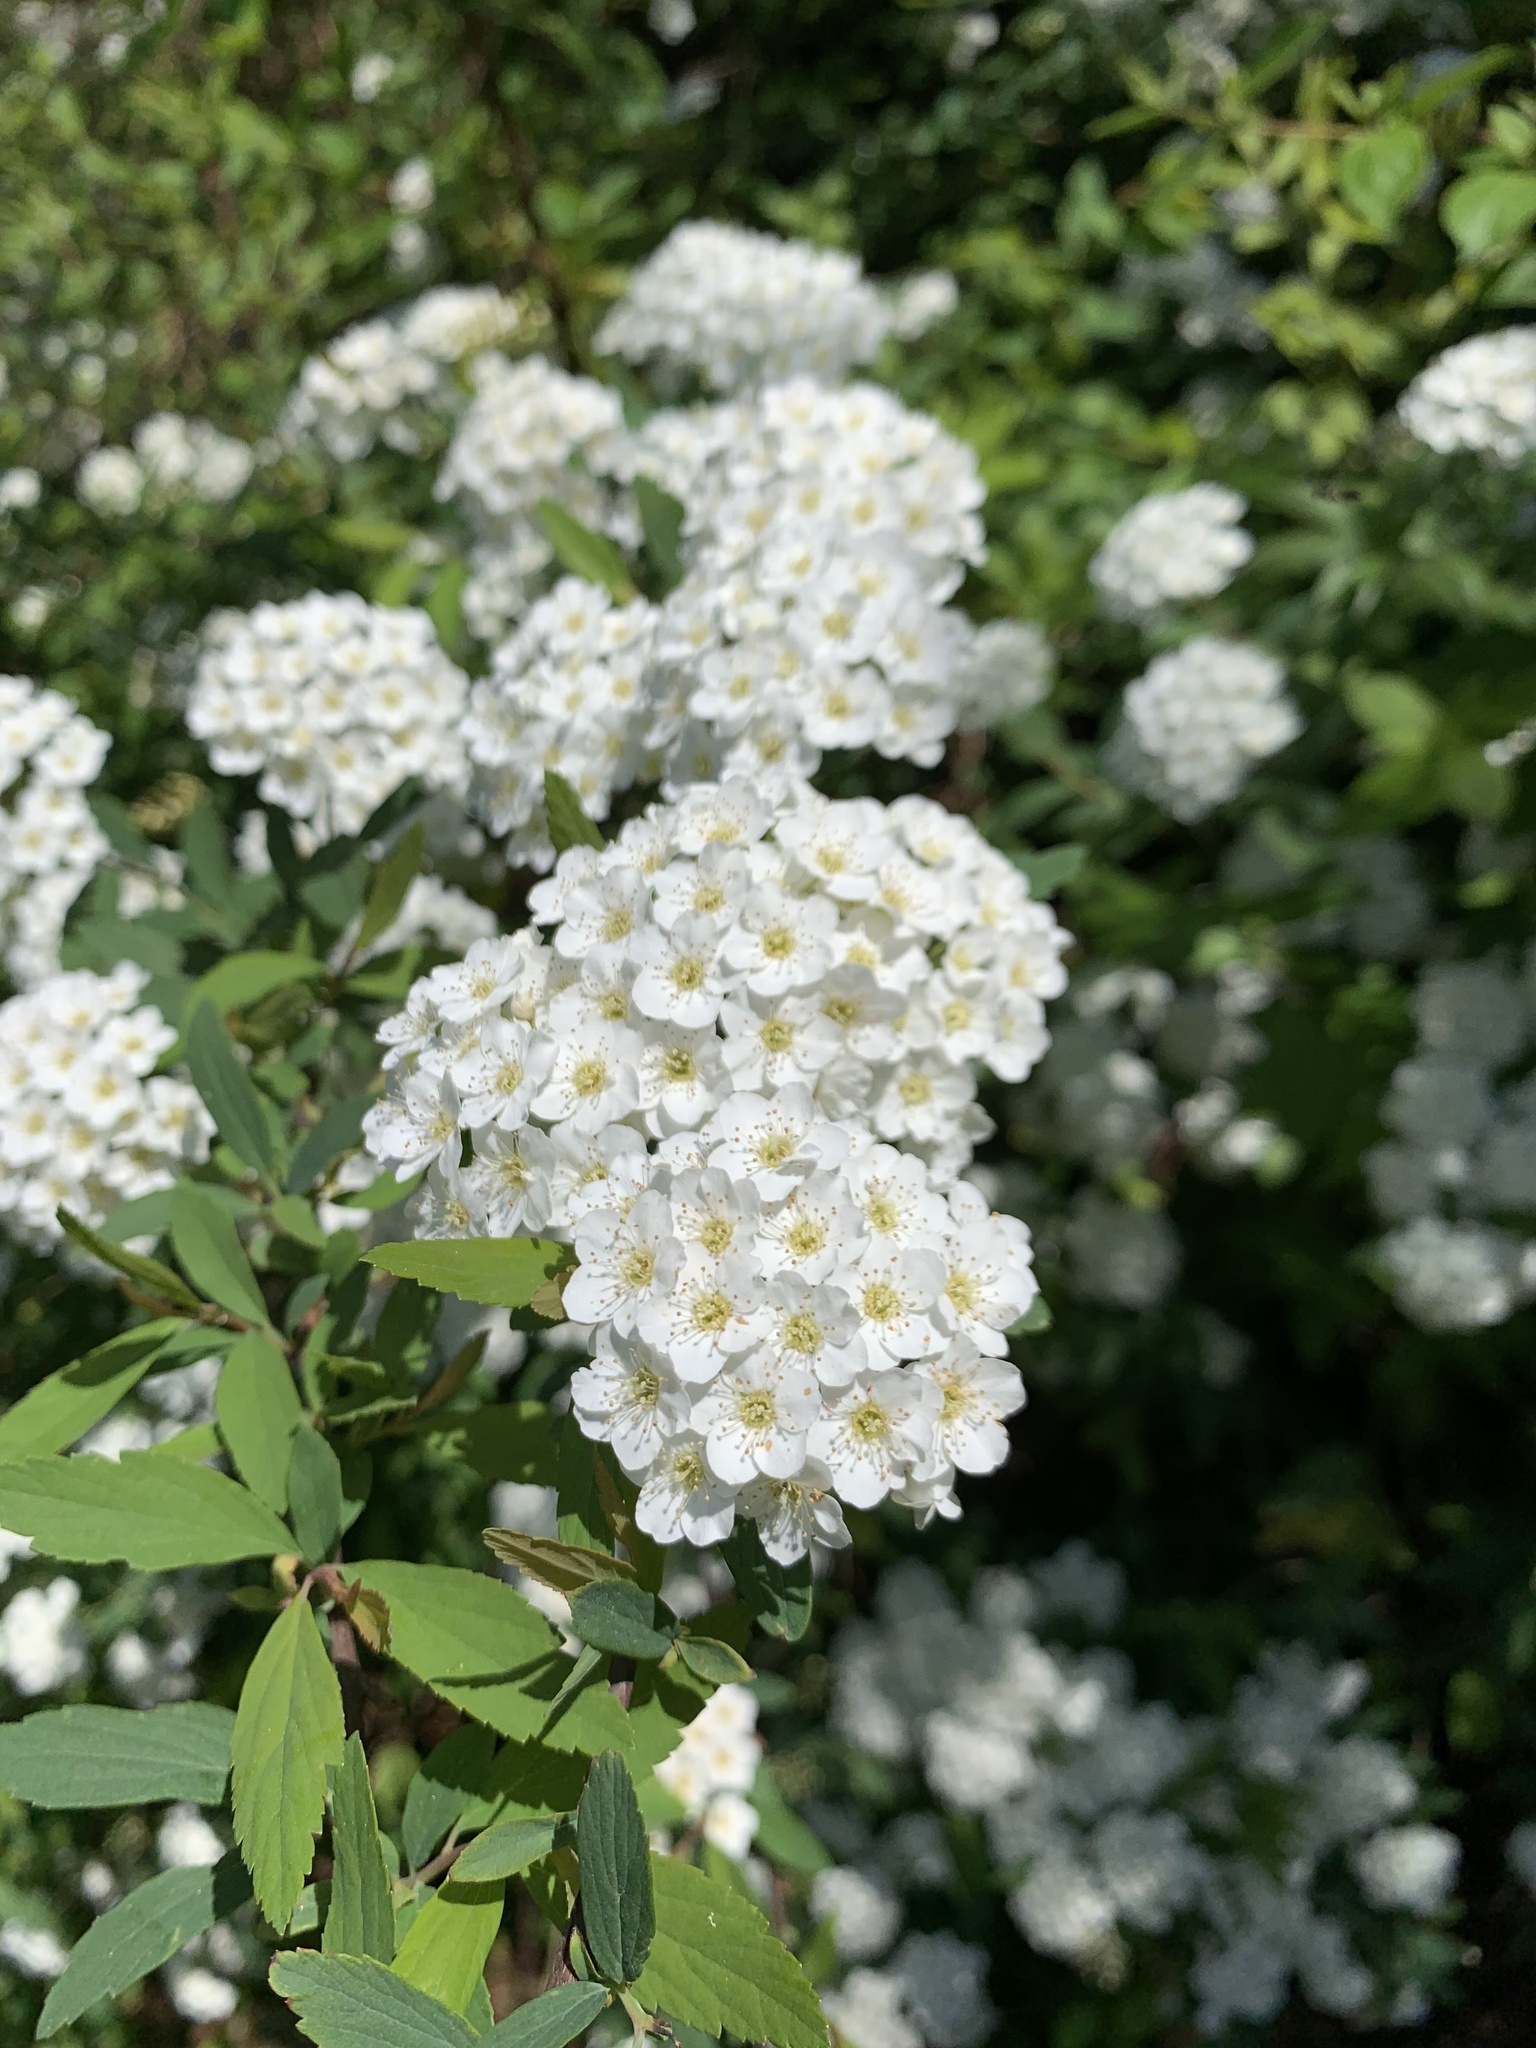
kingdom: Plantae
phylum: Tracheophyta
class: Magnoliopsida
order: Rosales
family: Rosaceae
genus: Spiraea
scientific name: Spiraea cantoniensis
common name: Reeves' meadowsweet
